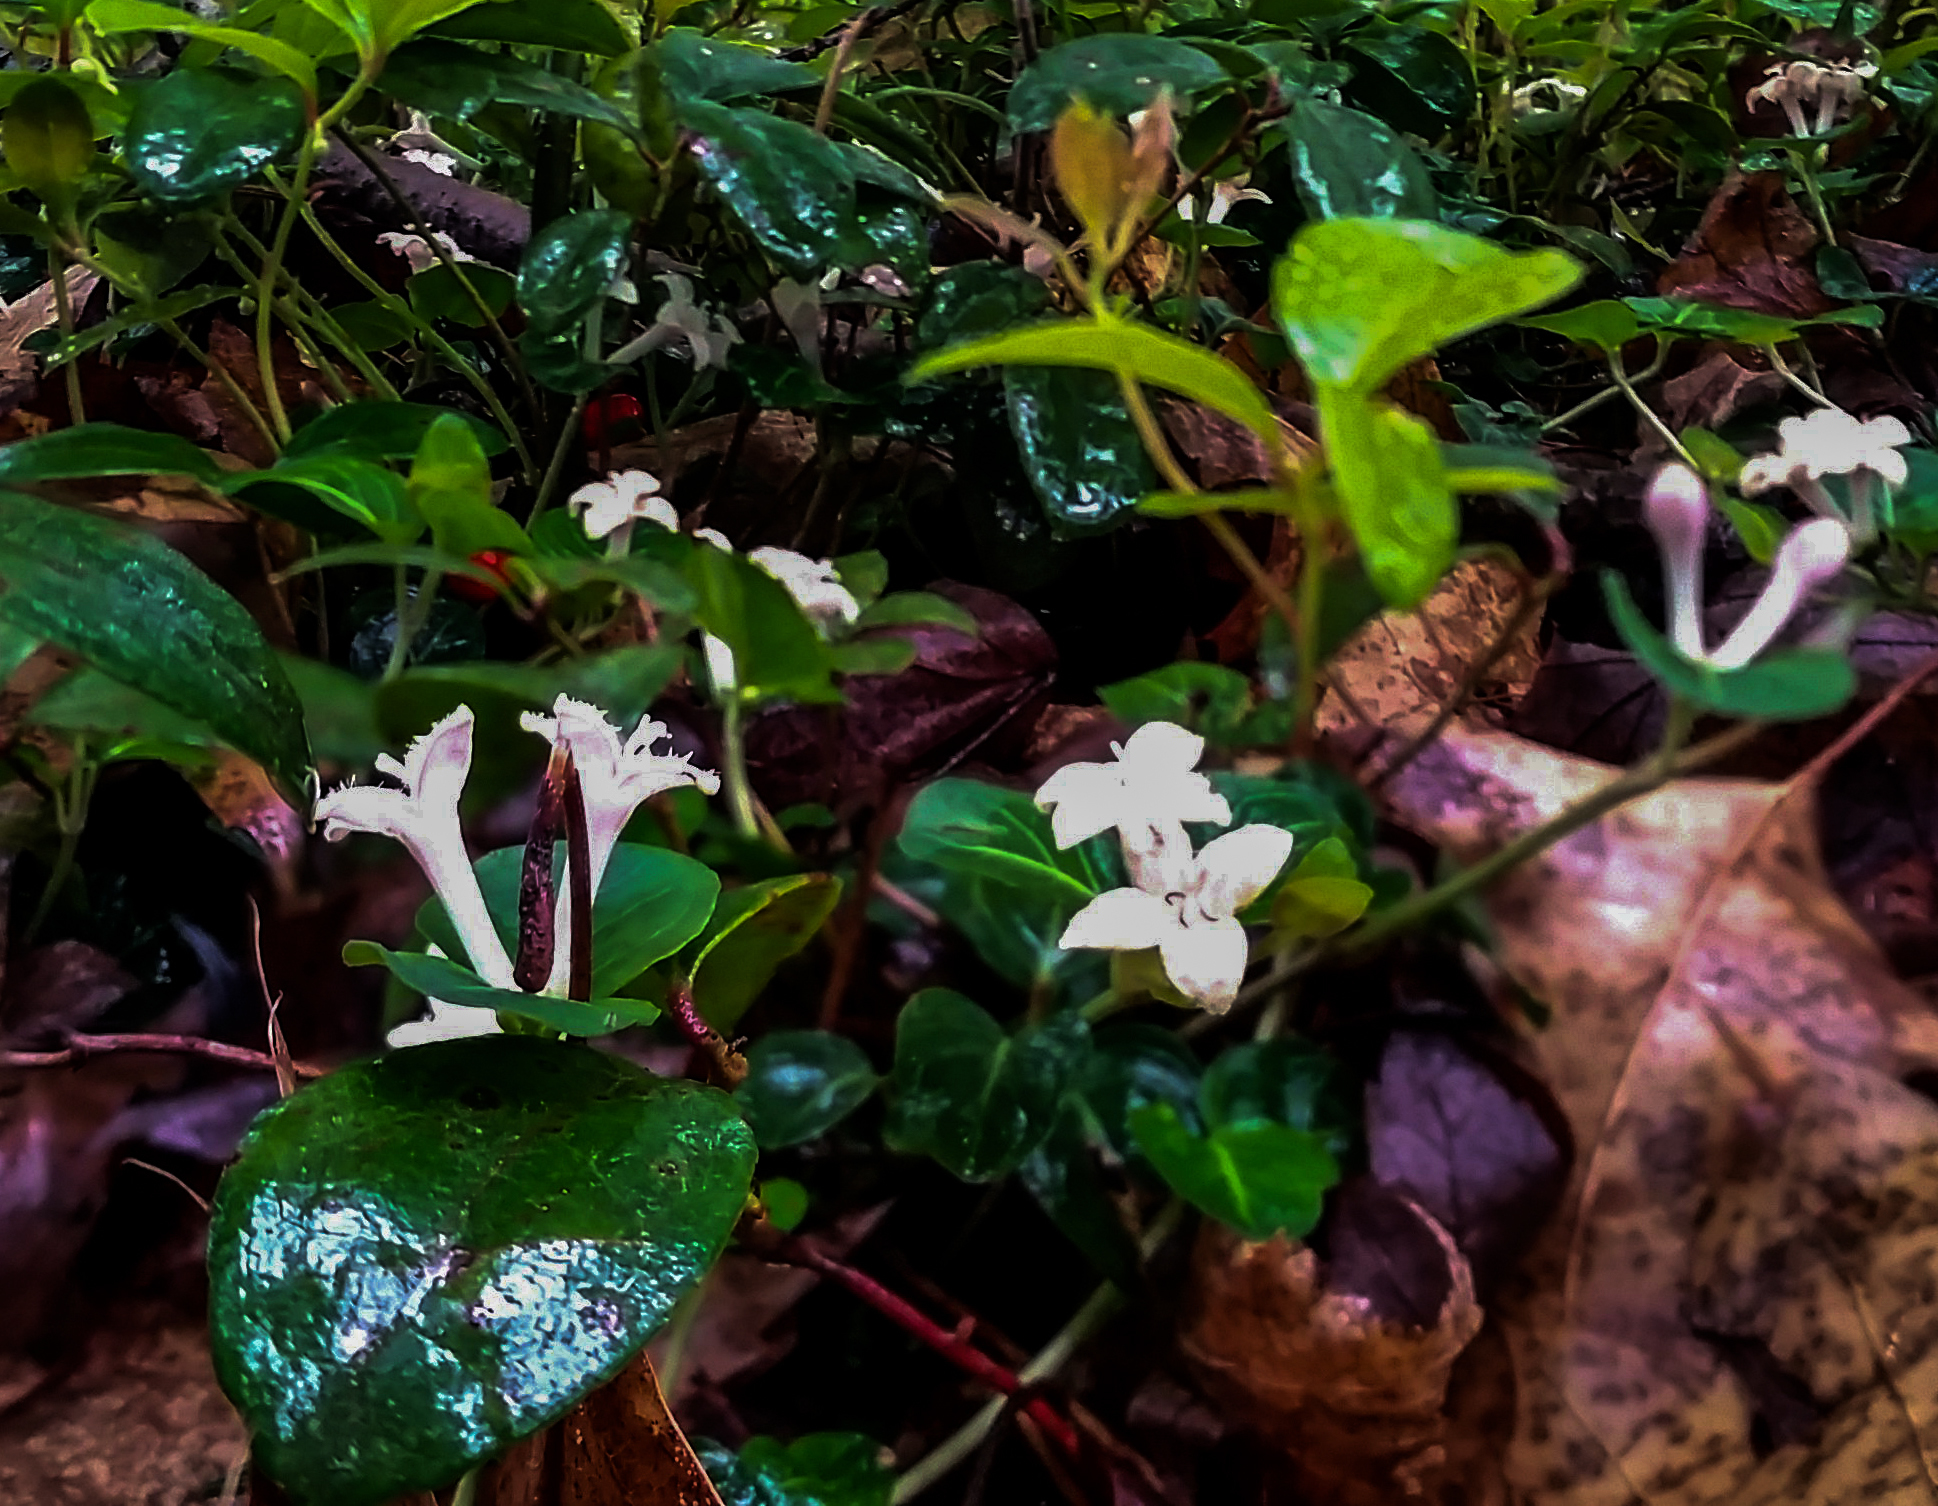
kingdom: Plantae
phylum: Tracheophyta
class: Magnoliopsida
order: Gentianales
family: Rubiaceae
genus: Mitchella
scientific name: Mitchella repens
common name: Partridge-berry
